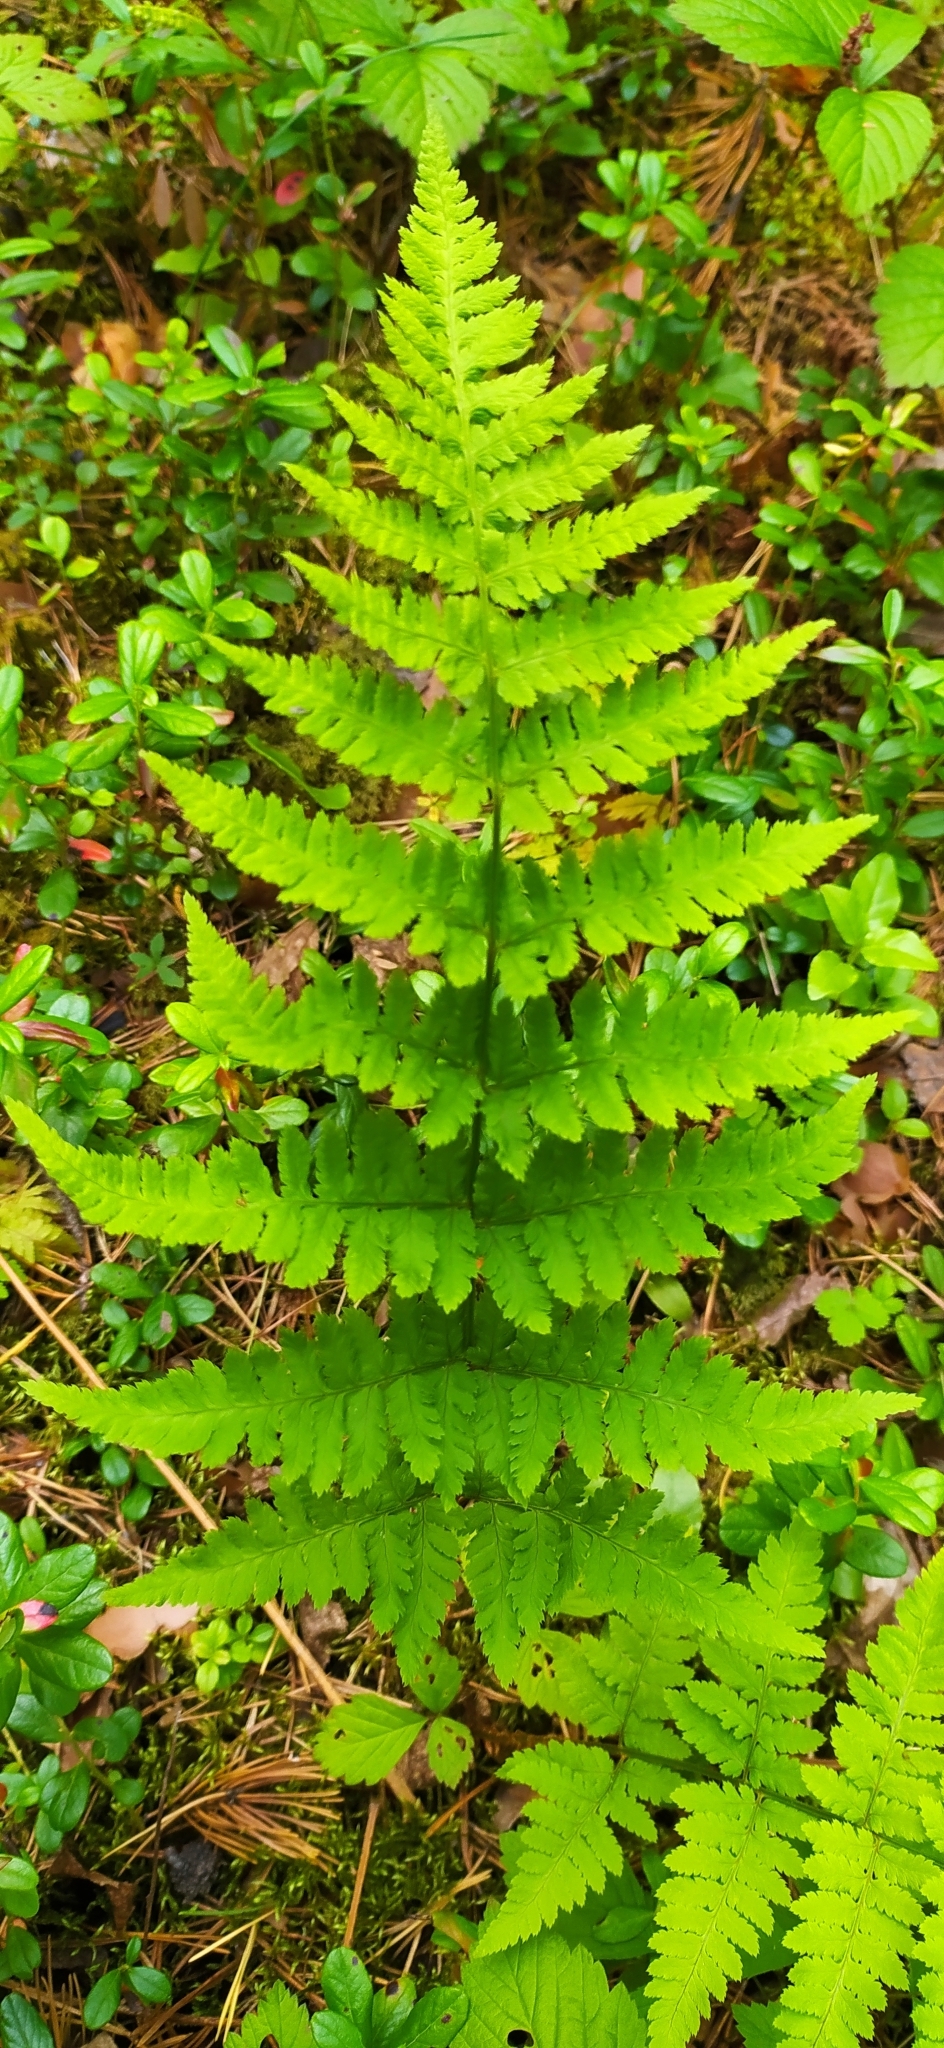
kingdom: Plantae
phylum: Tracheophyta
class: Polypodiopsida
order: Polypodiales
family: Dryopteridaceae
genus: Dryopteris
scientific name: Dryopteris carthusiana
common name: Narrow buckler-fern
